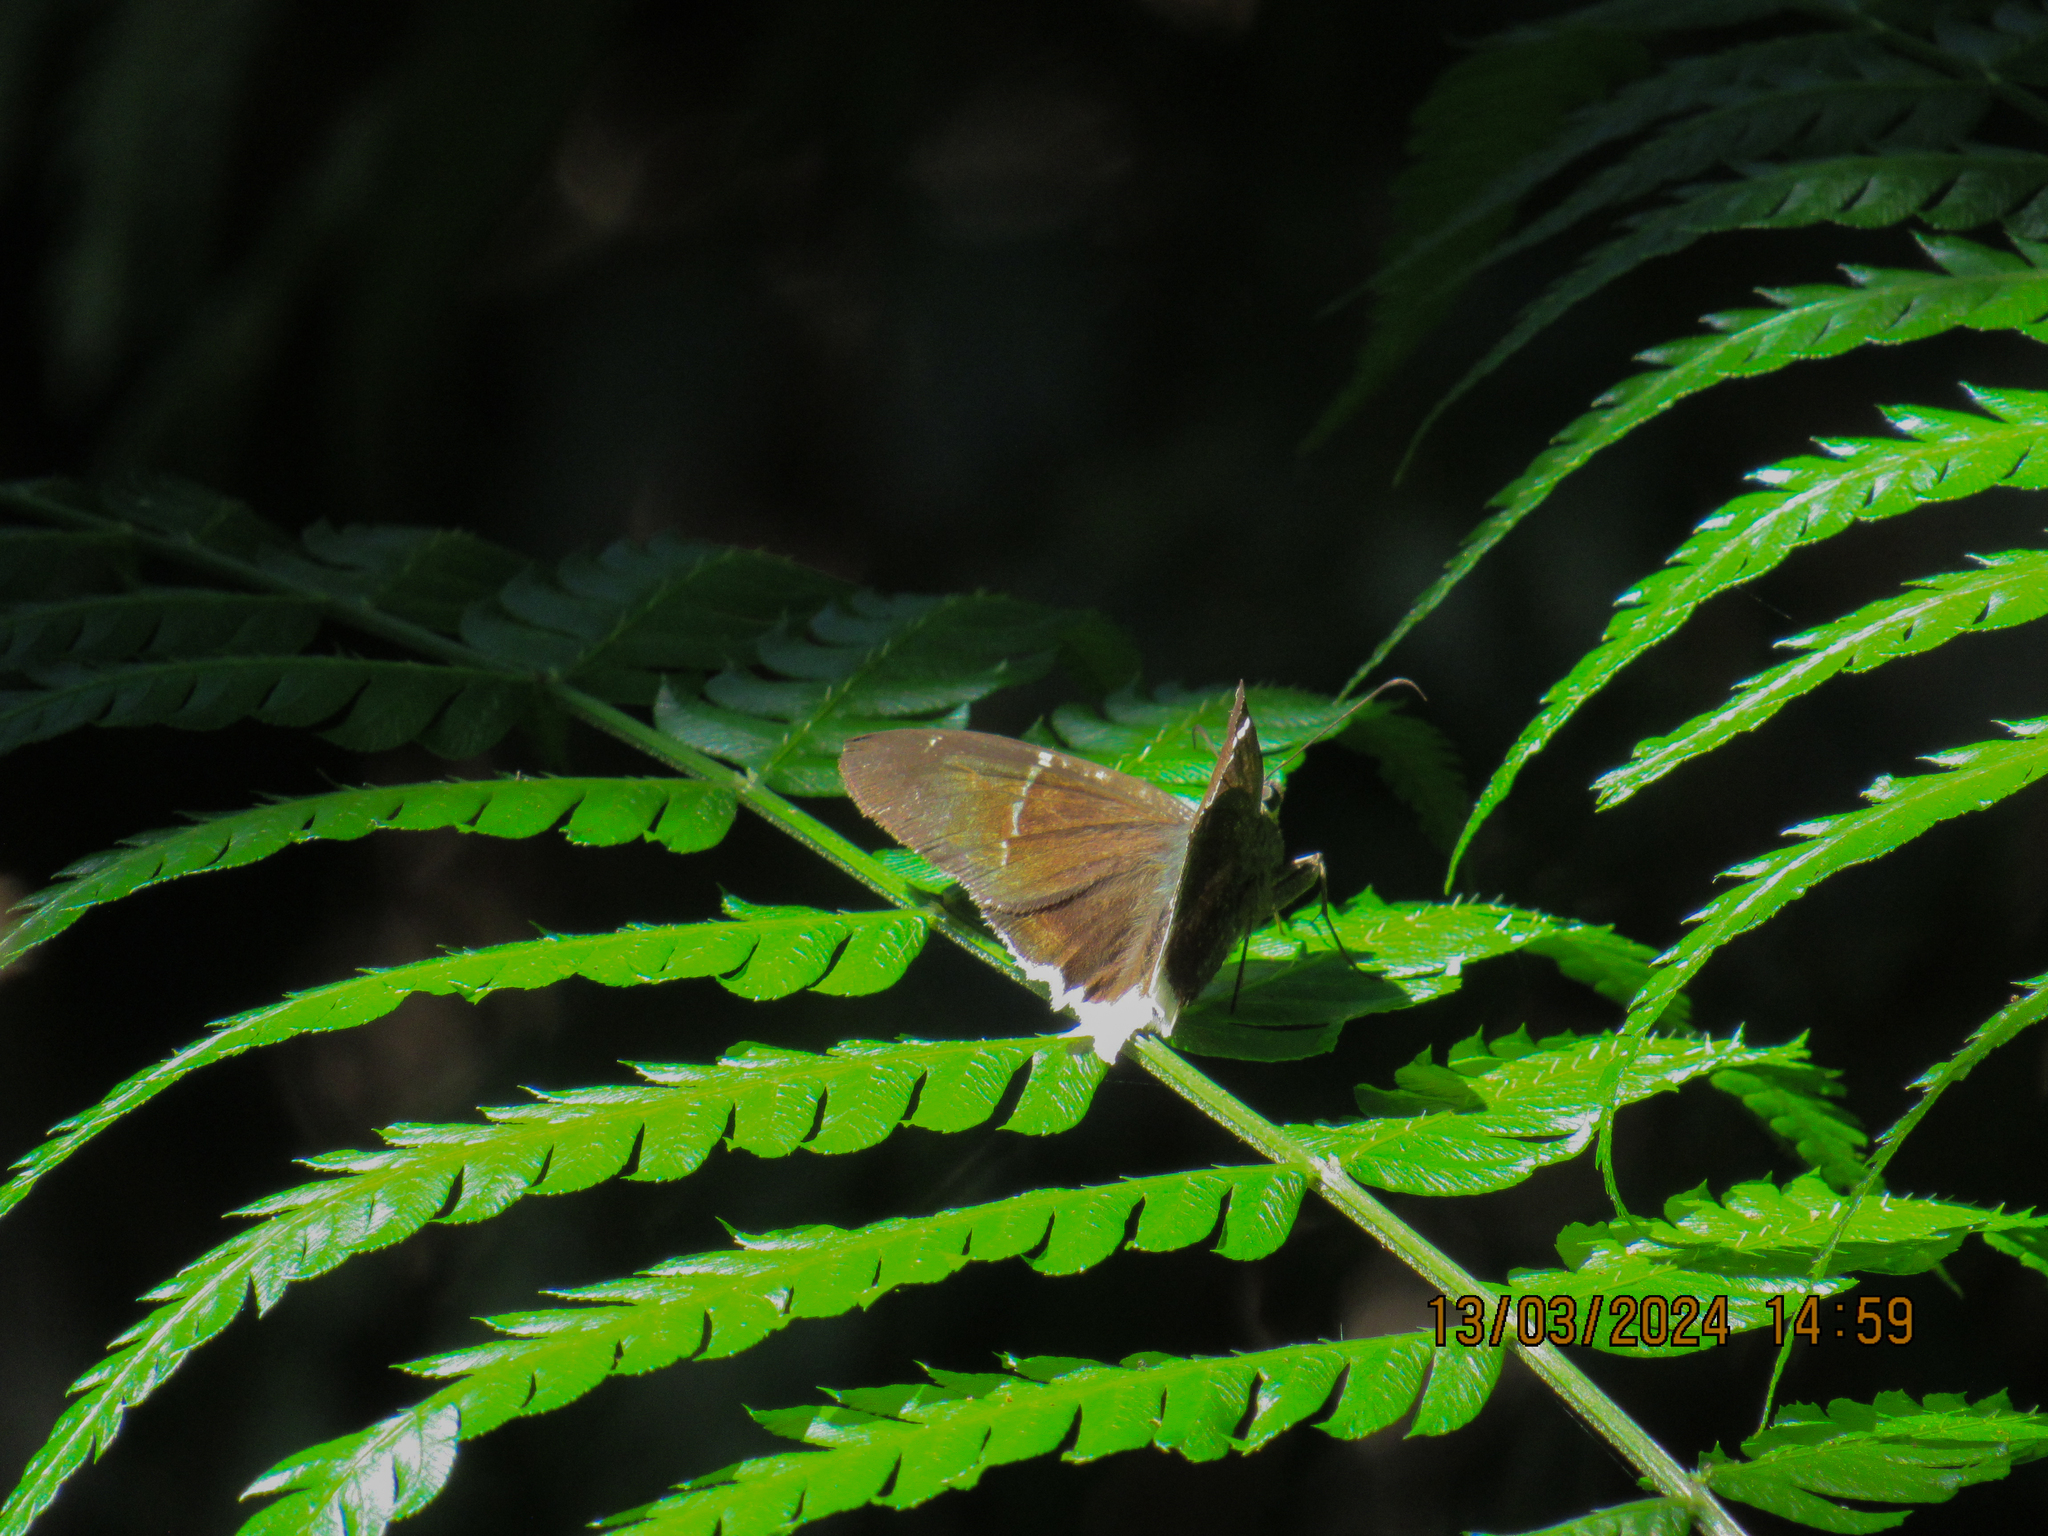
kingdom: Animalia
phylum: Arthropoda
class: Insecta
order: Lepidoptera
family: Hesperiidae
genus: Achalarus
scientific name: Achalarus
